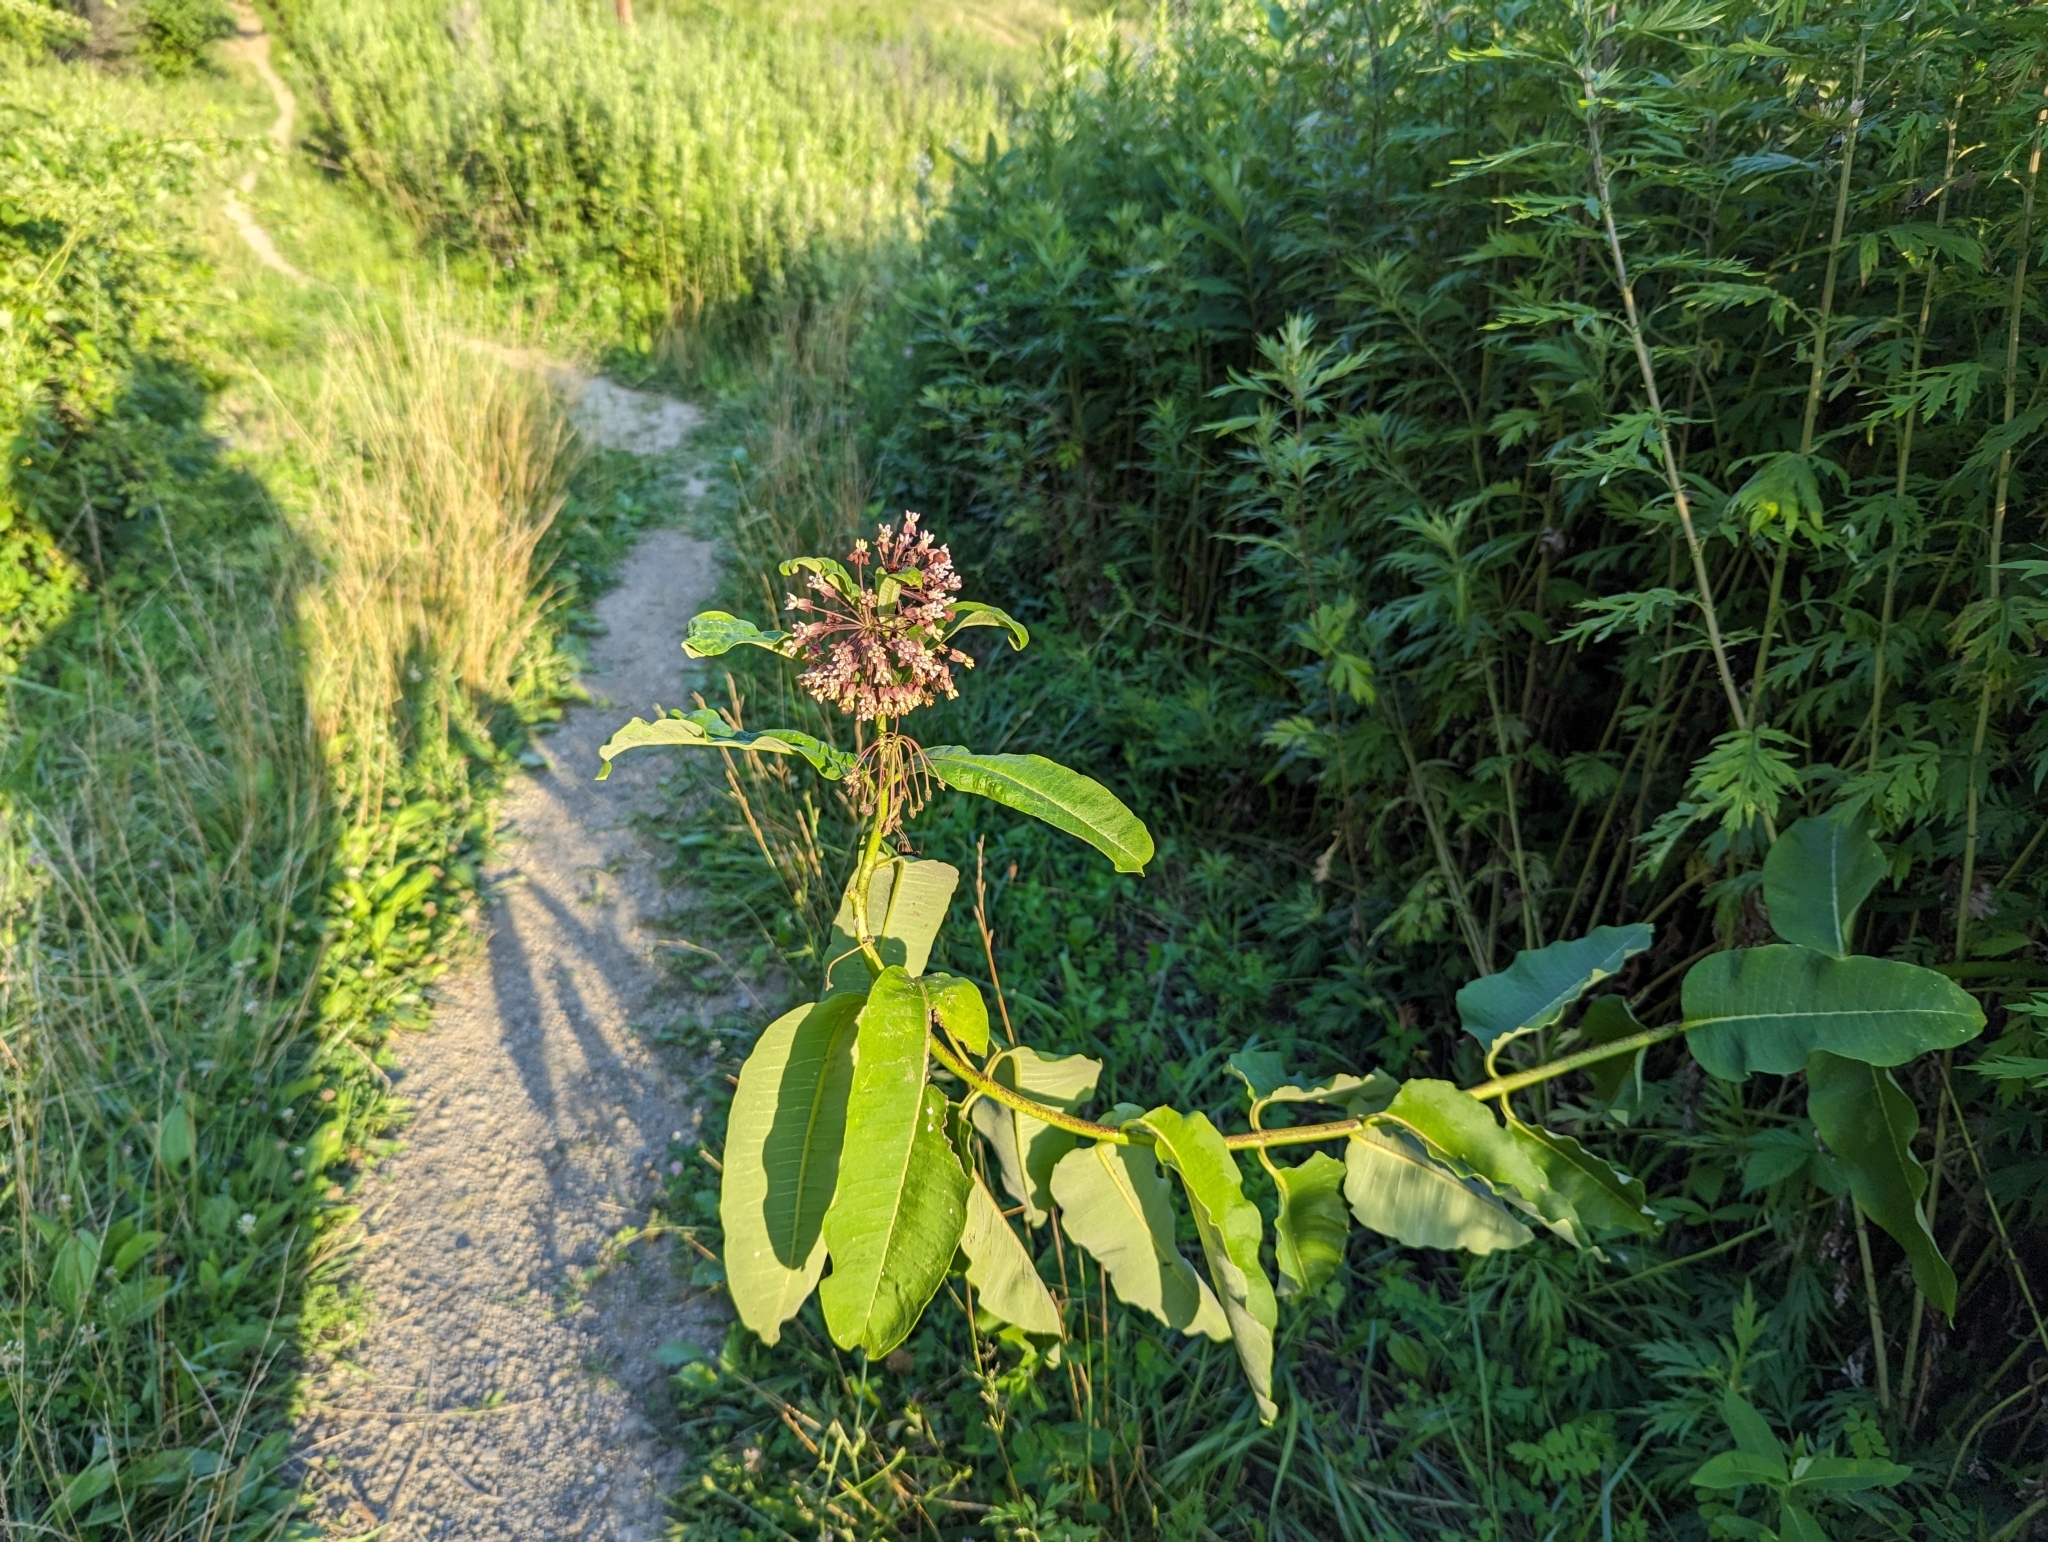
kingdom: Plantae
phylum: Tracheophyta
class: Magnoliopsida
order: Gentianales
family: Apocynaceae
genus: Asclepias
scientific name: Asclepias syriaca
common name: Common milkweed
